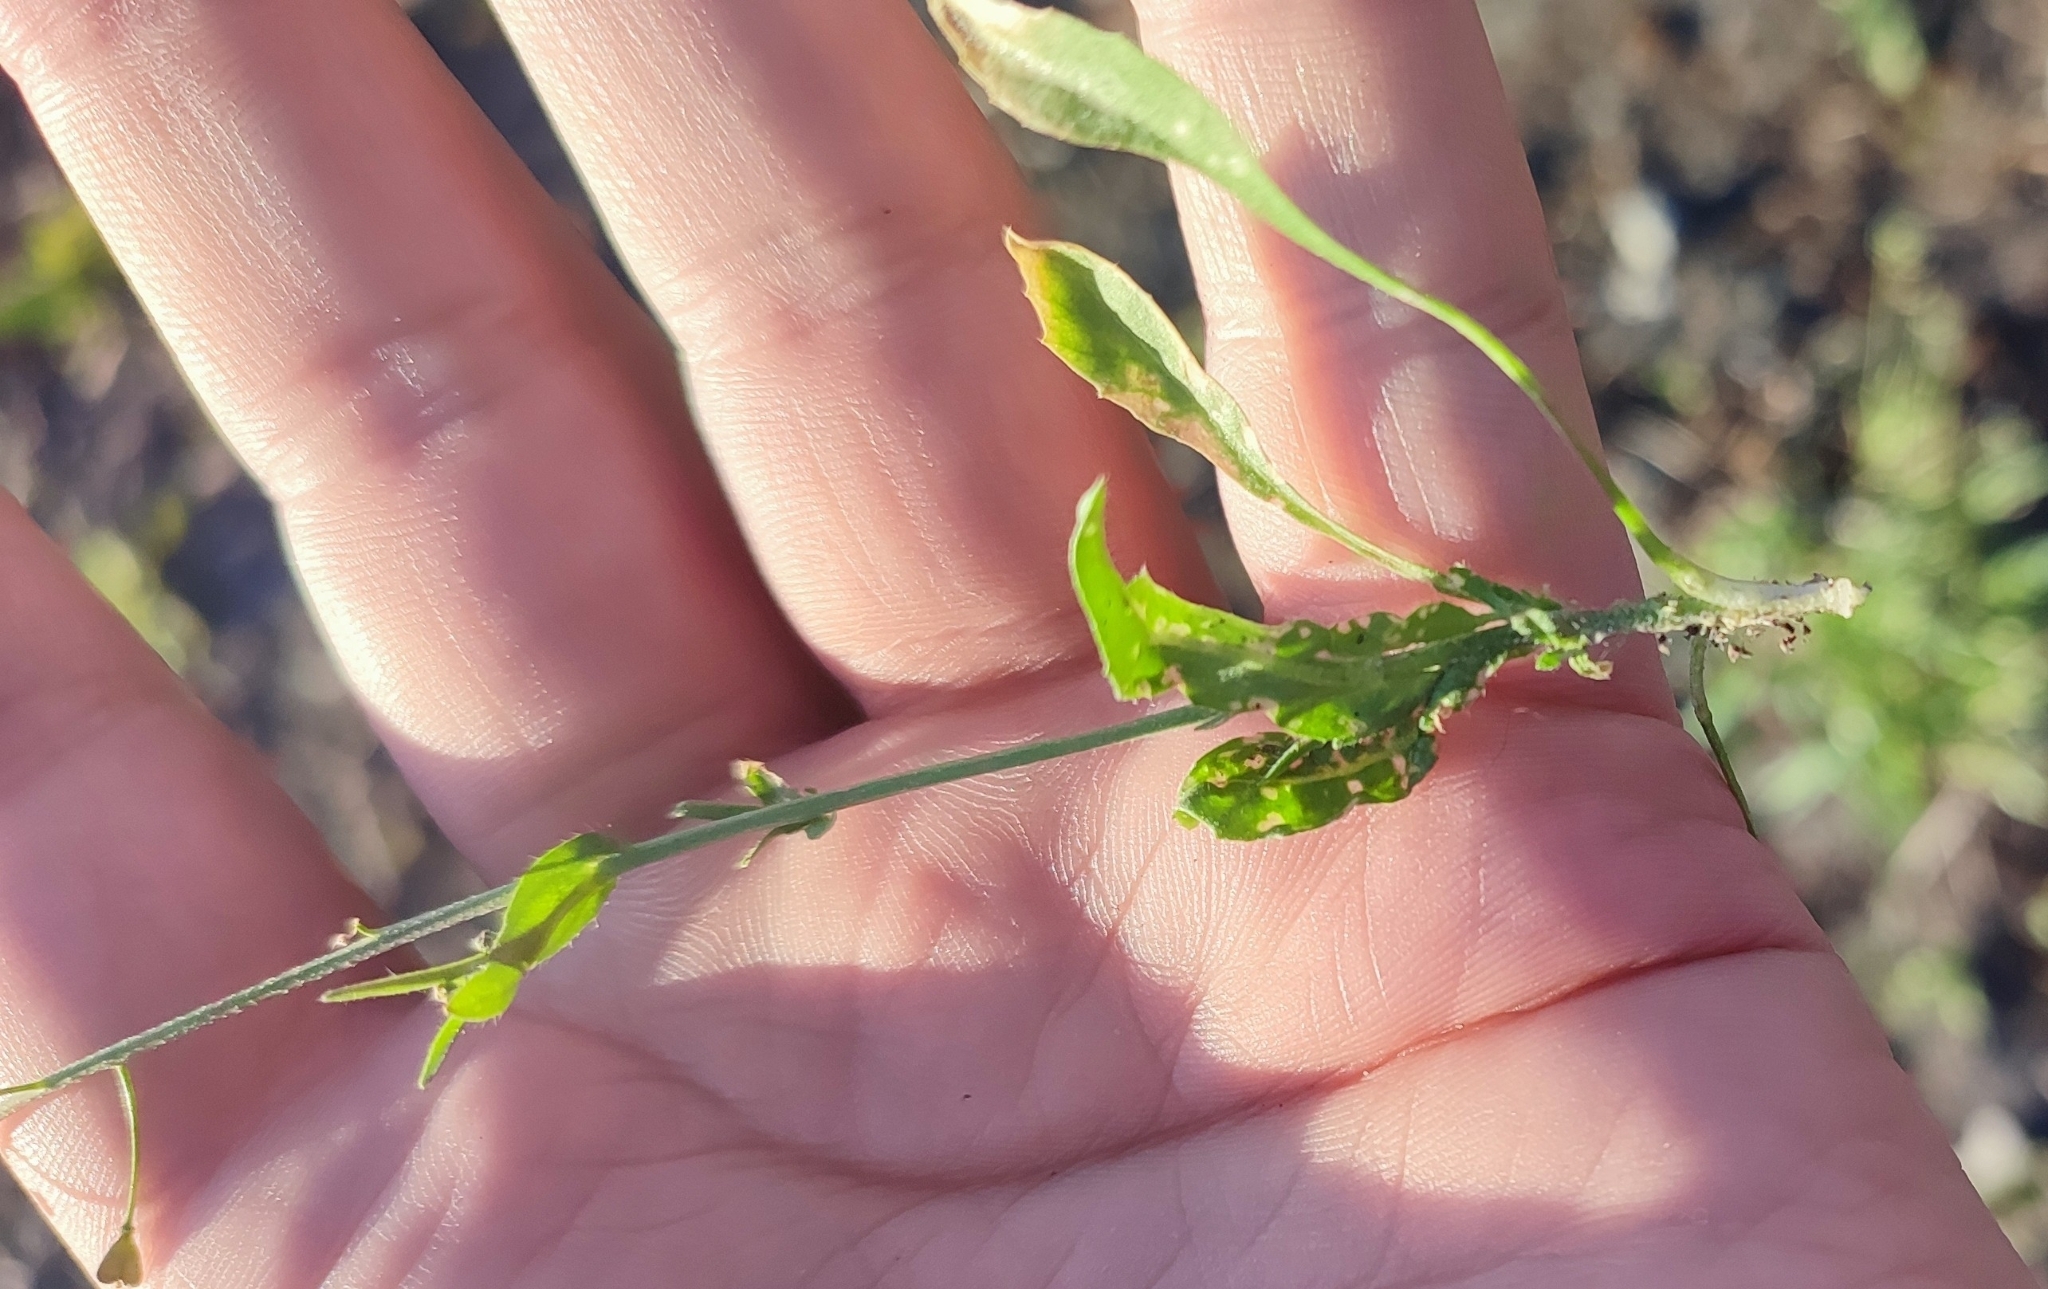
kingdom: Plantae
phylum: Tracheophyta
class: Magnoliopsida
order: Brassicales
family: Brassicaceae
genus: Capsella
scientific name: Capsella bursa-pastoris
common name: Shepherd's purse
